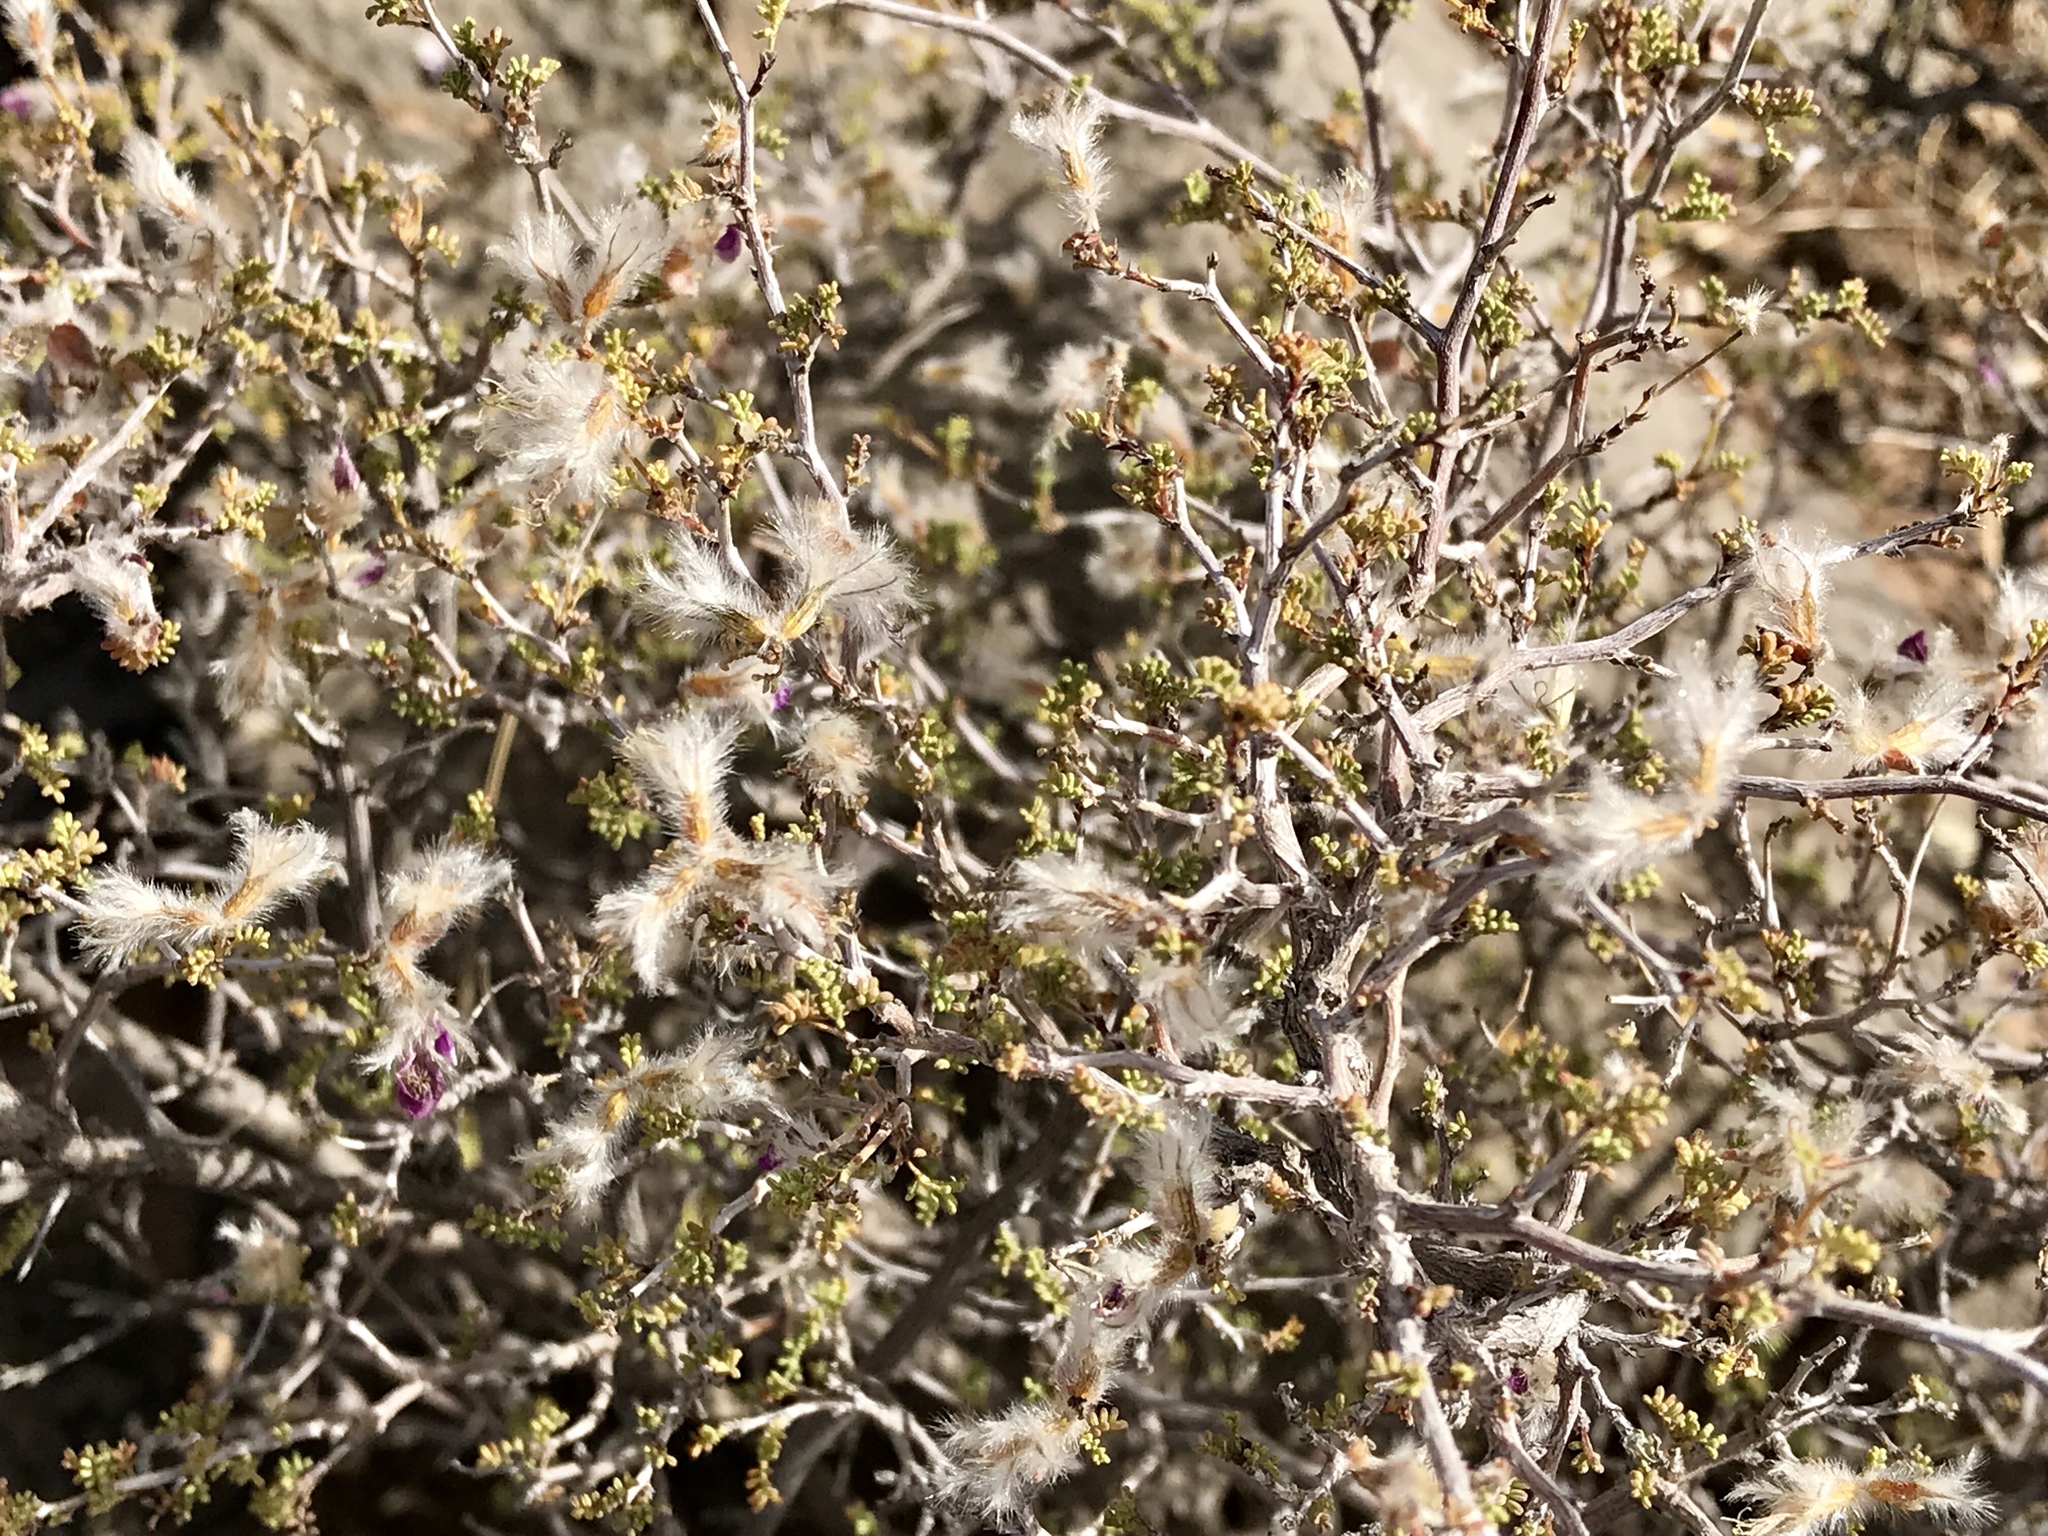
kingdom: Plantae
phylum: Tracheophyta
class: Magnoliopsida
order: Fabales
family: Fabaceae
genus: Dalea
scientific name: Dalea formosa
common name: Feather-plume dalea
